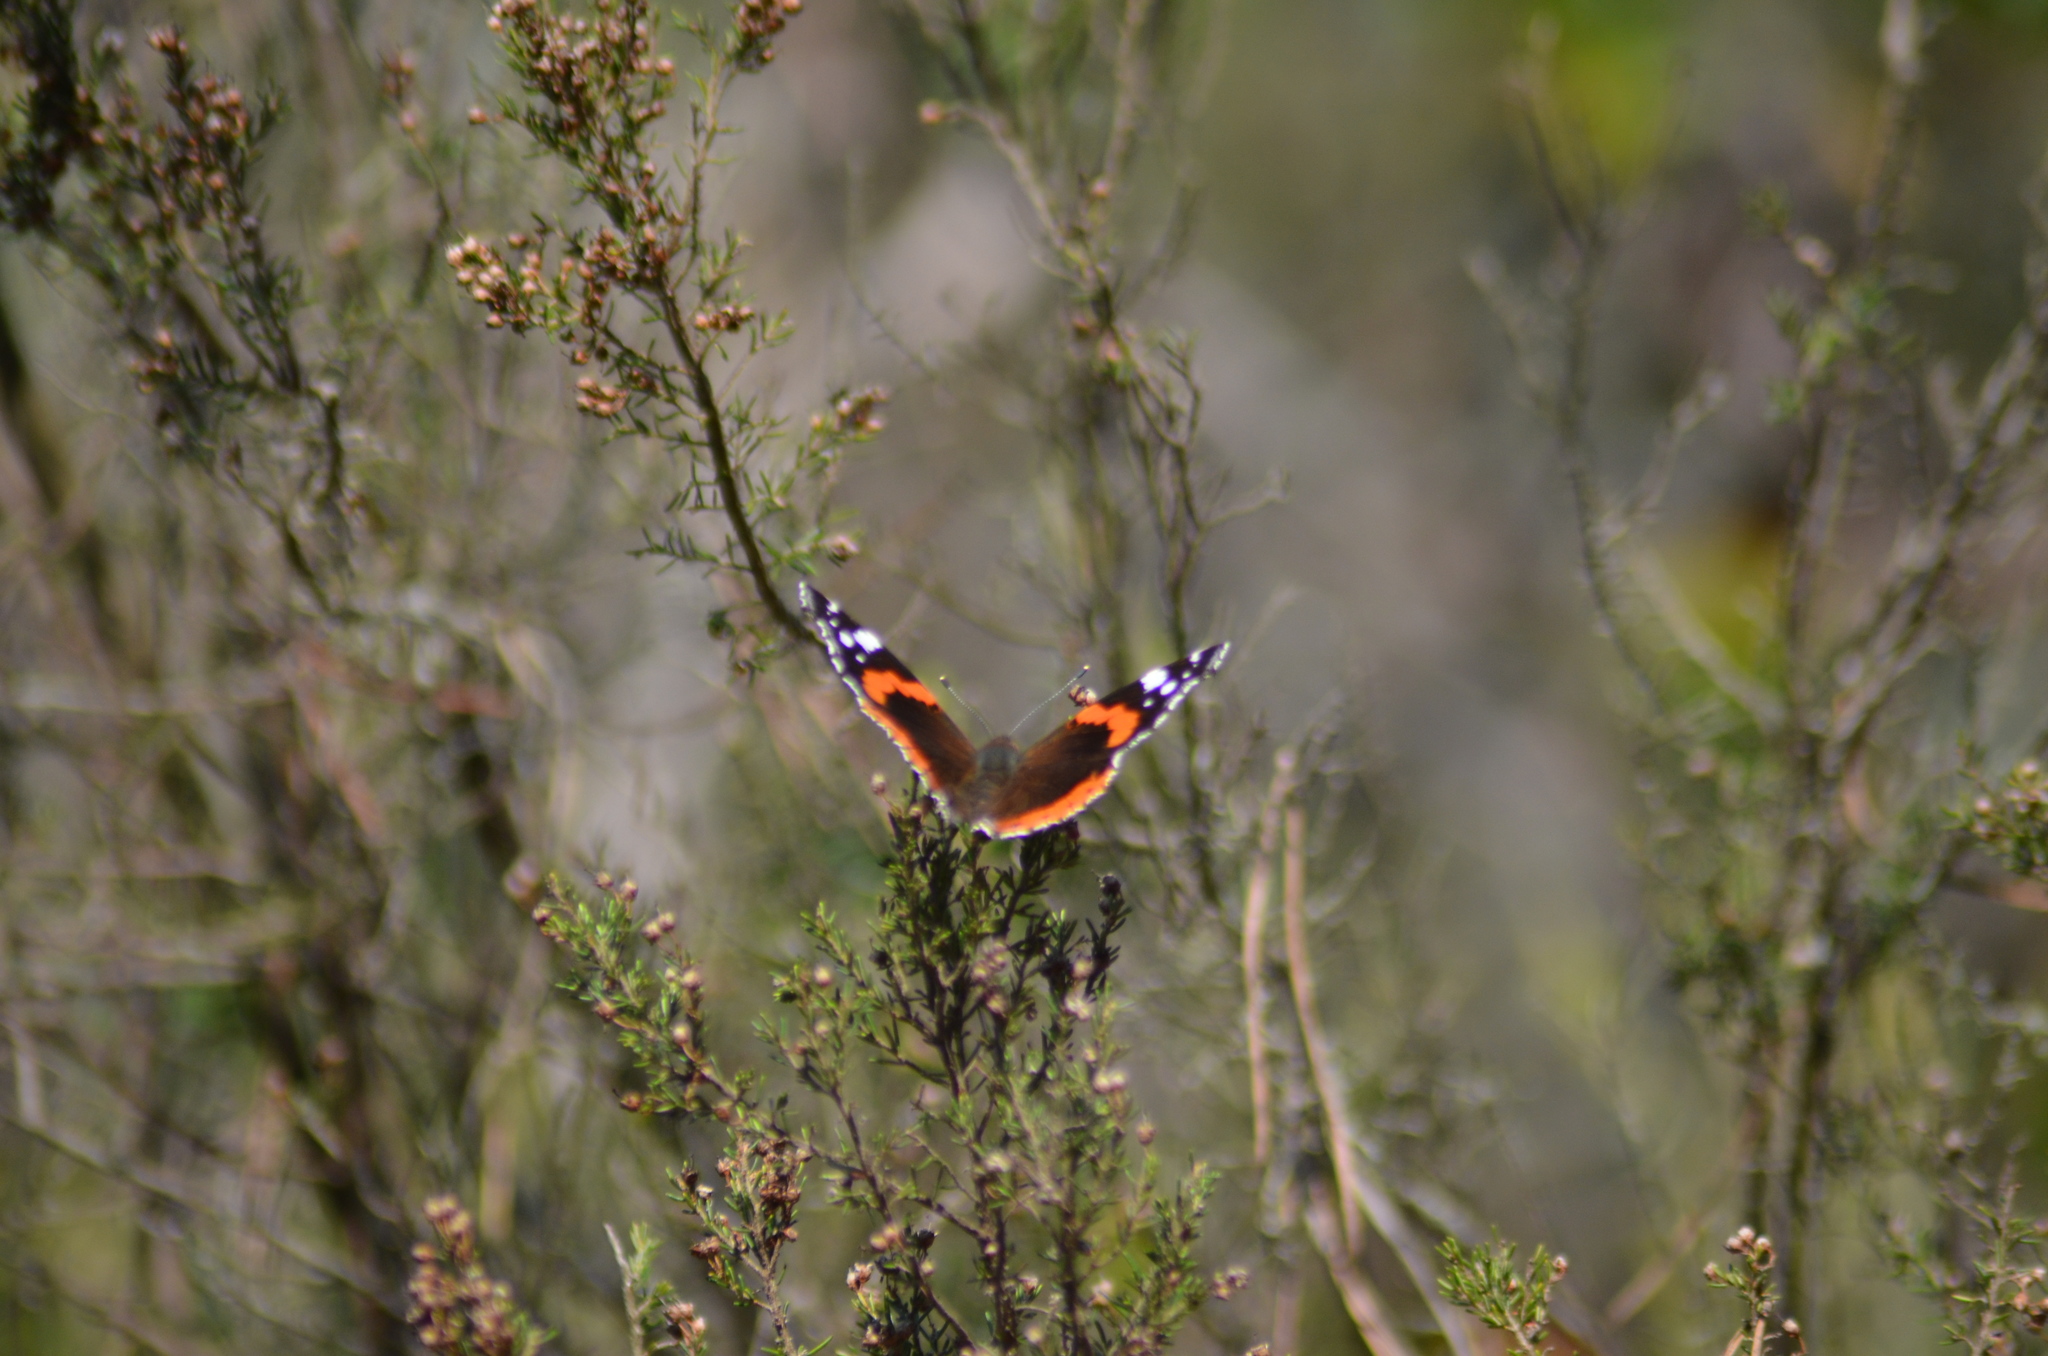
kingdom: Animalia
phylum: Arthropoda
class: Insecta
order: Lepidoptera
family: Nymphalidae
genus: Vanessa
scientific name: Vanessa atalanta
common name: Red admiral
